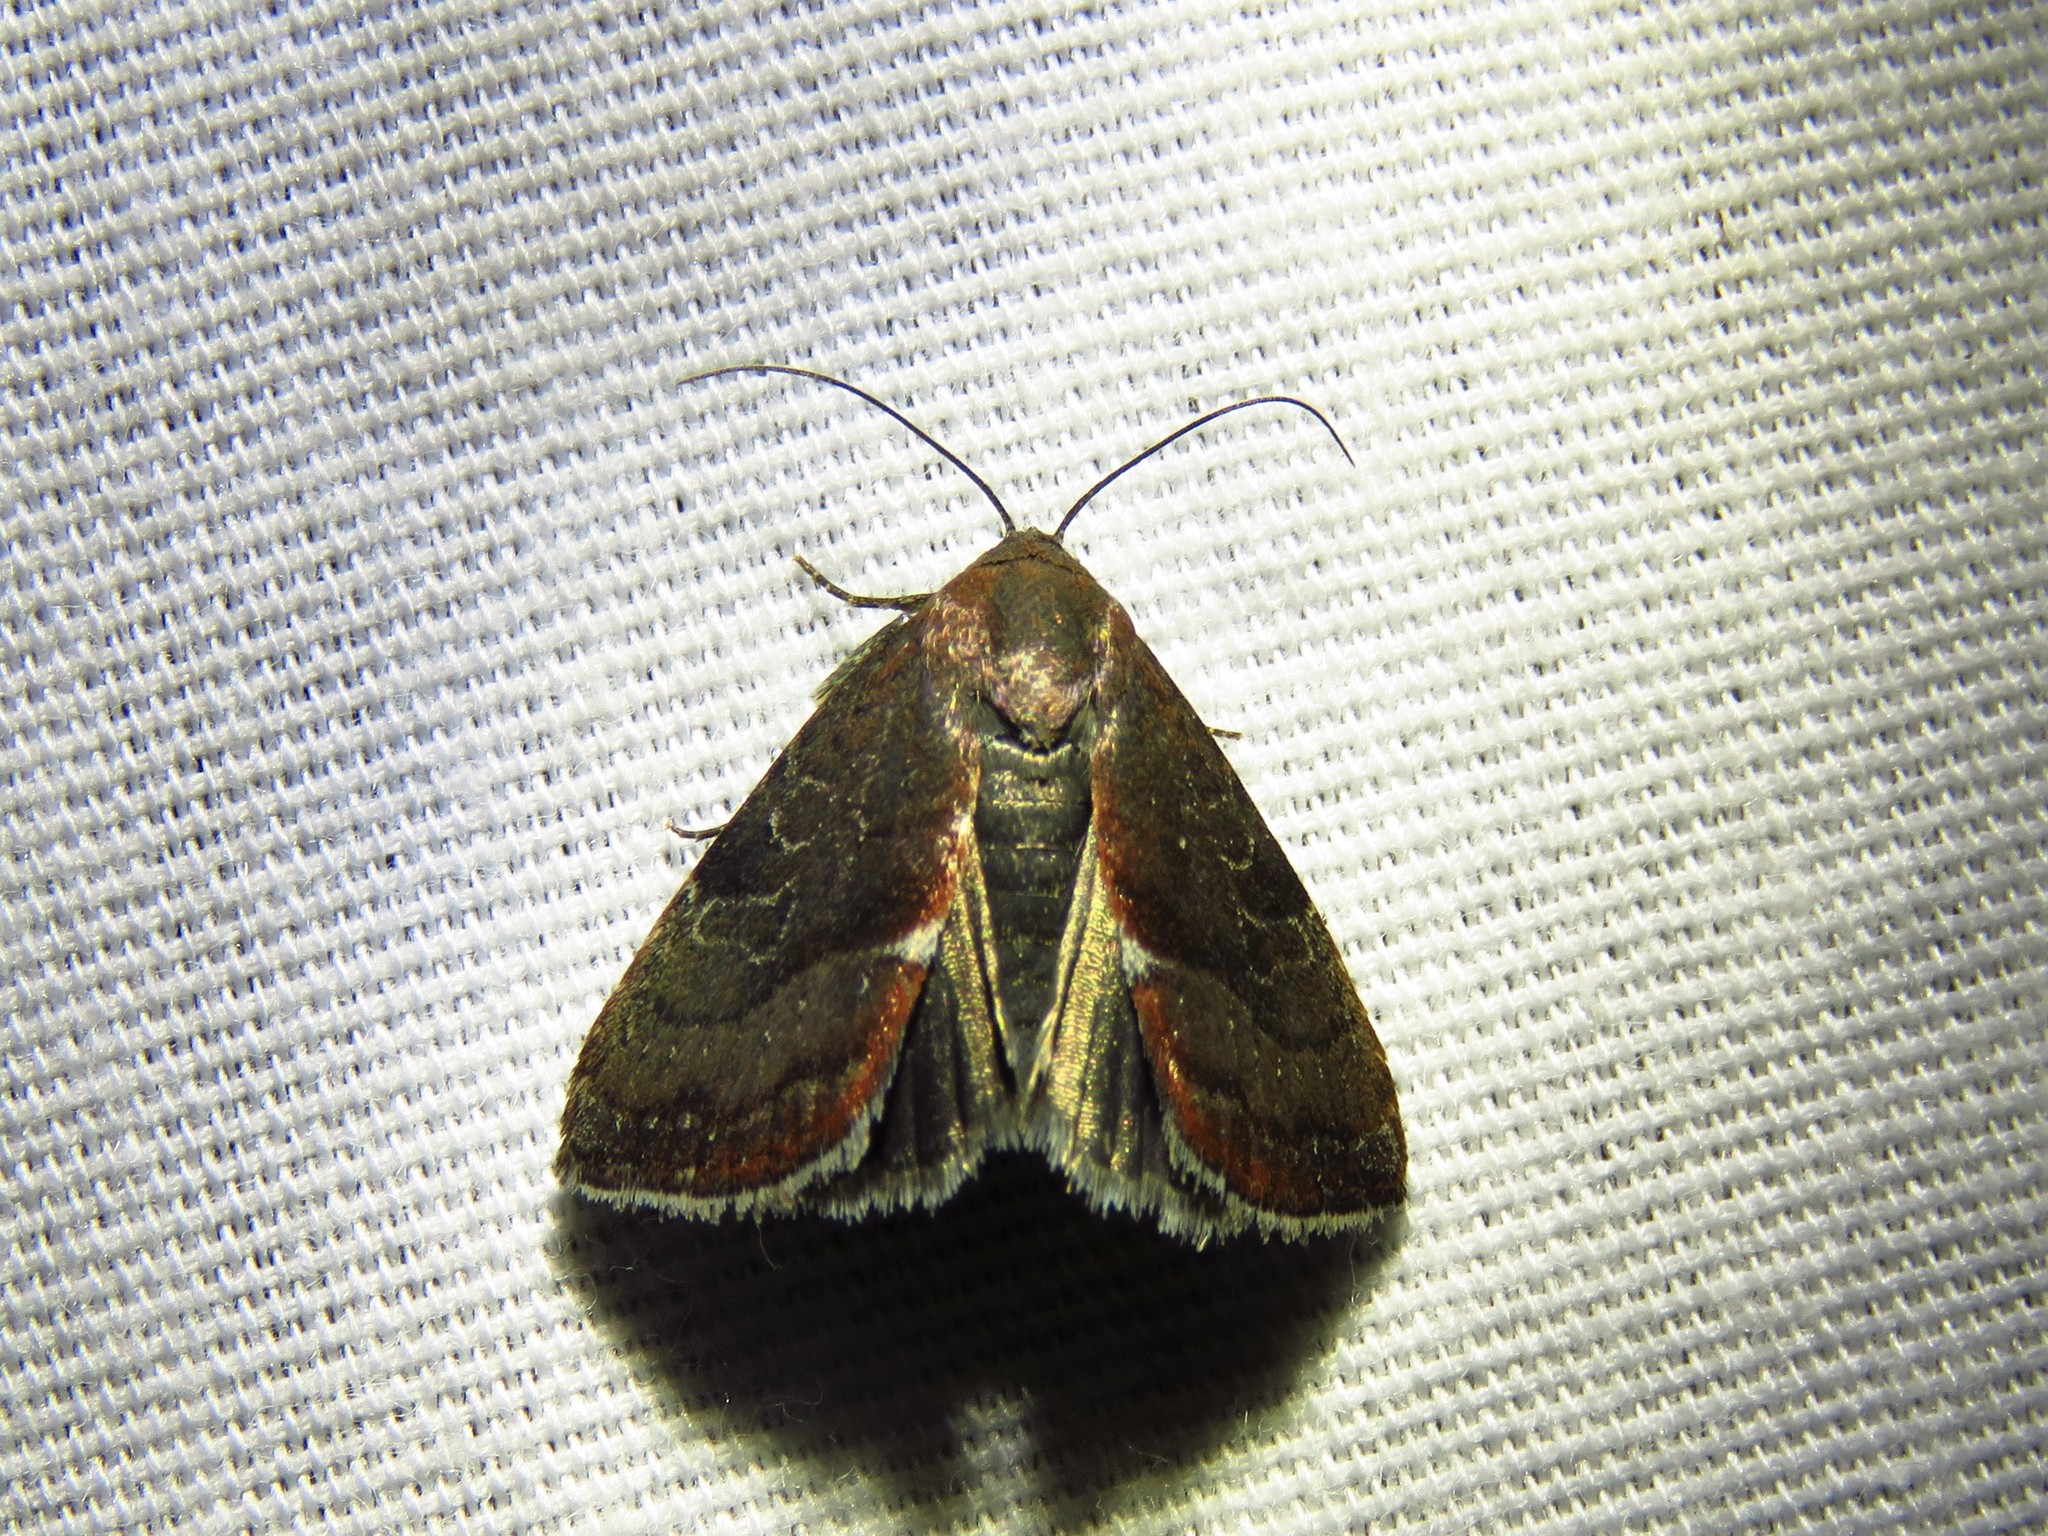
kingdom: Animalia
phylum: Arthropoda
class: Insecta
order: Lepidoptera
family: Noctuidae
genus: Galgula
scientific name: Galgula partita
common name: Wedgeling
